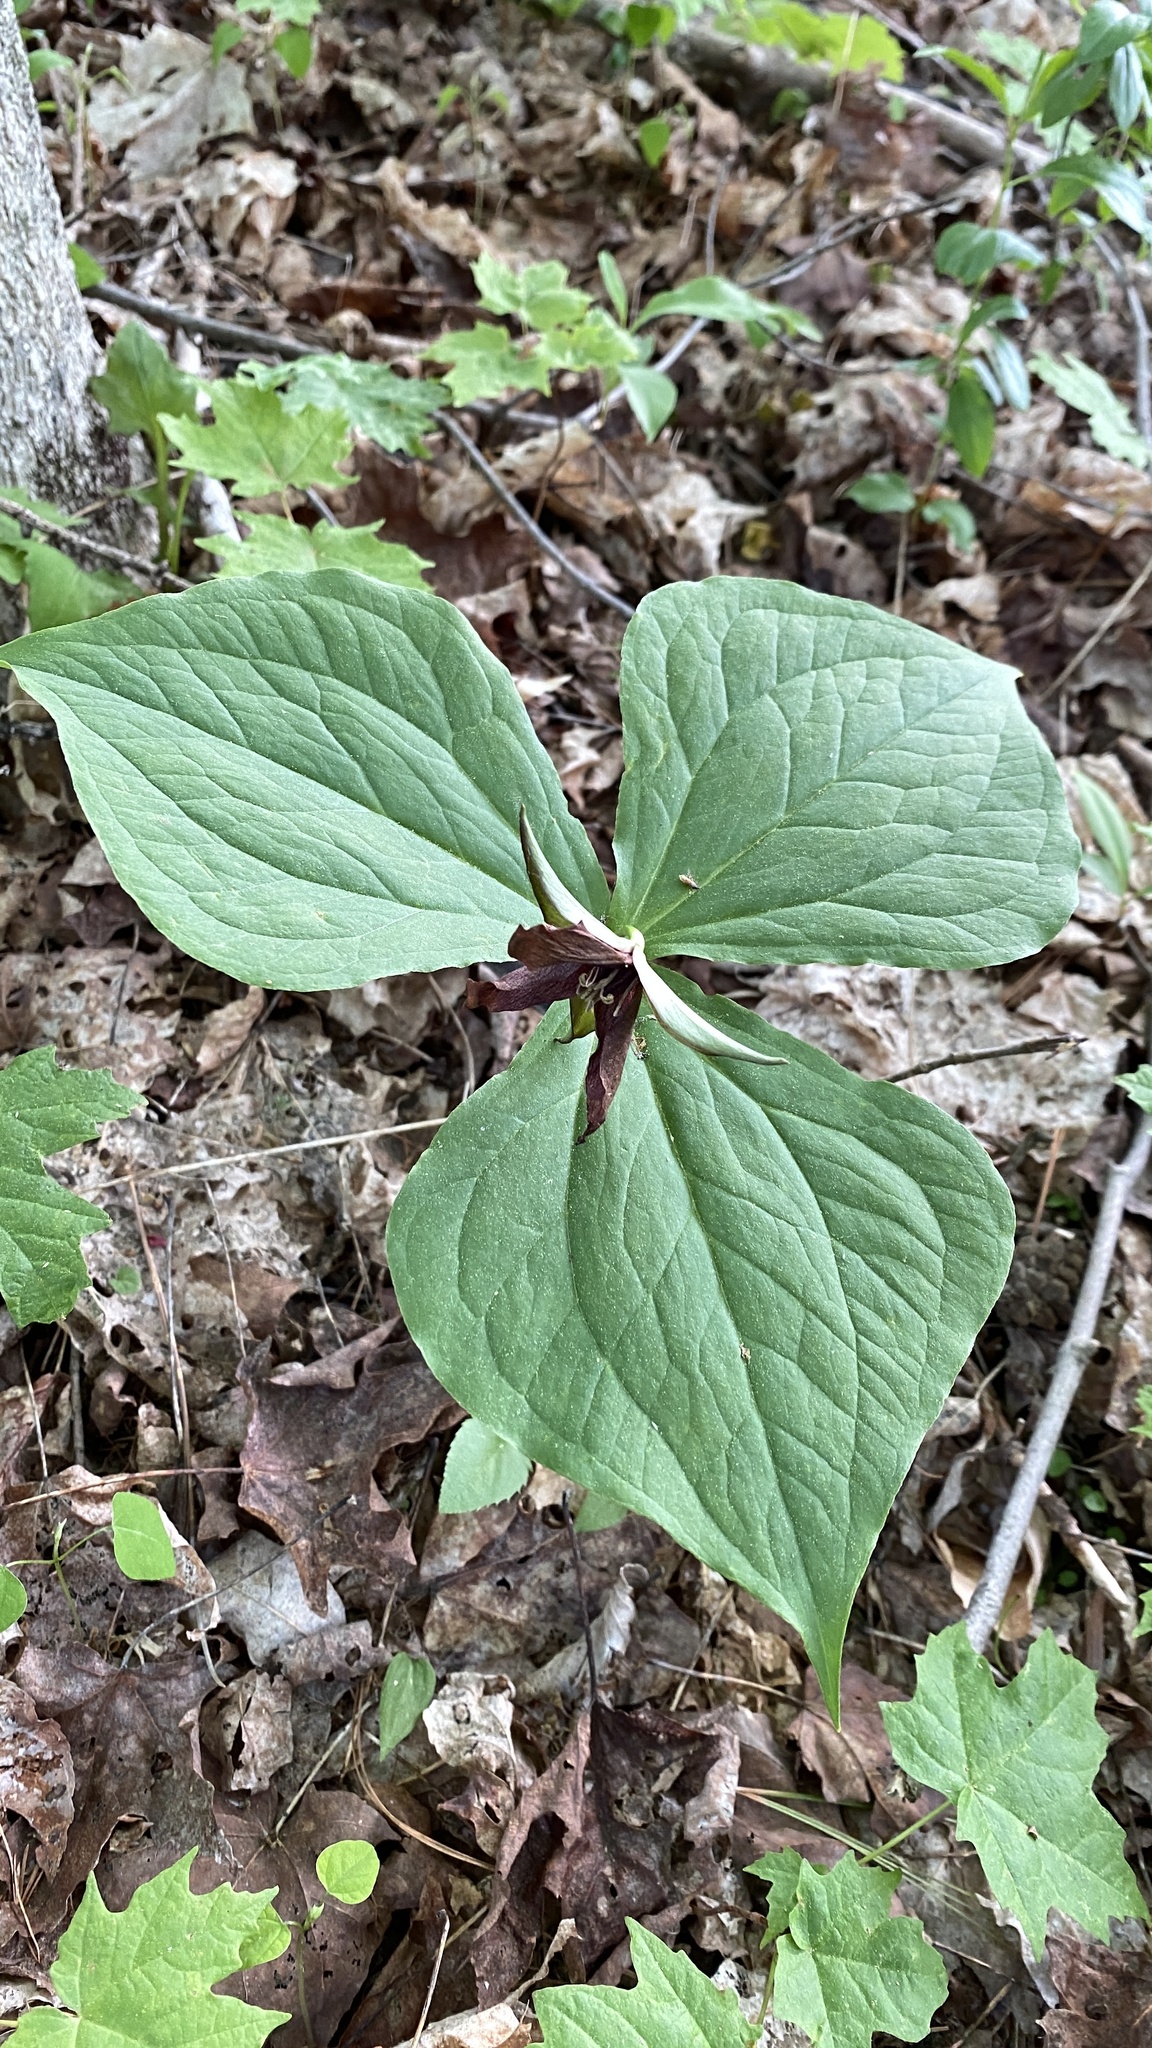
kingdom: Plantae
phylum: Tracheophyta
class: Liliopsida
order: Liliales
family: Melanthiaceae
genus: Trillium
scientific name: Trillium erectum
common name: Purple trillium
